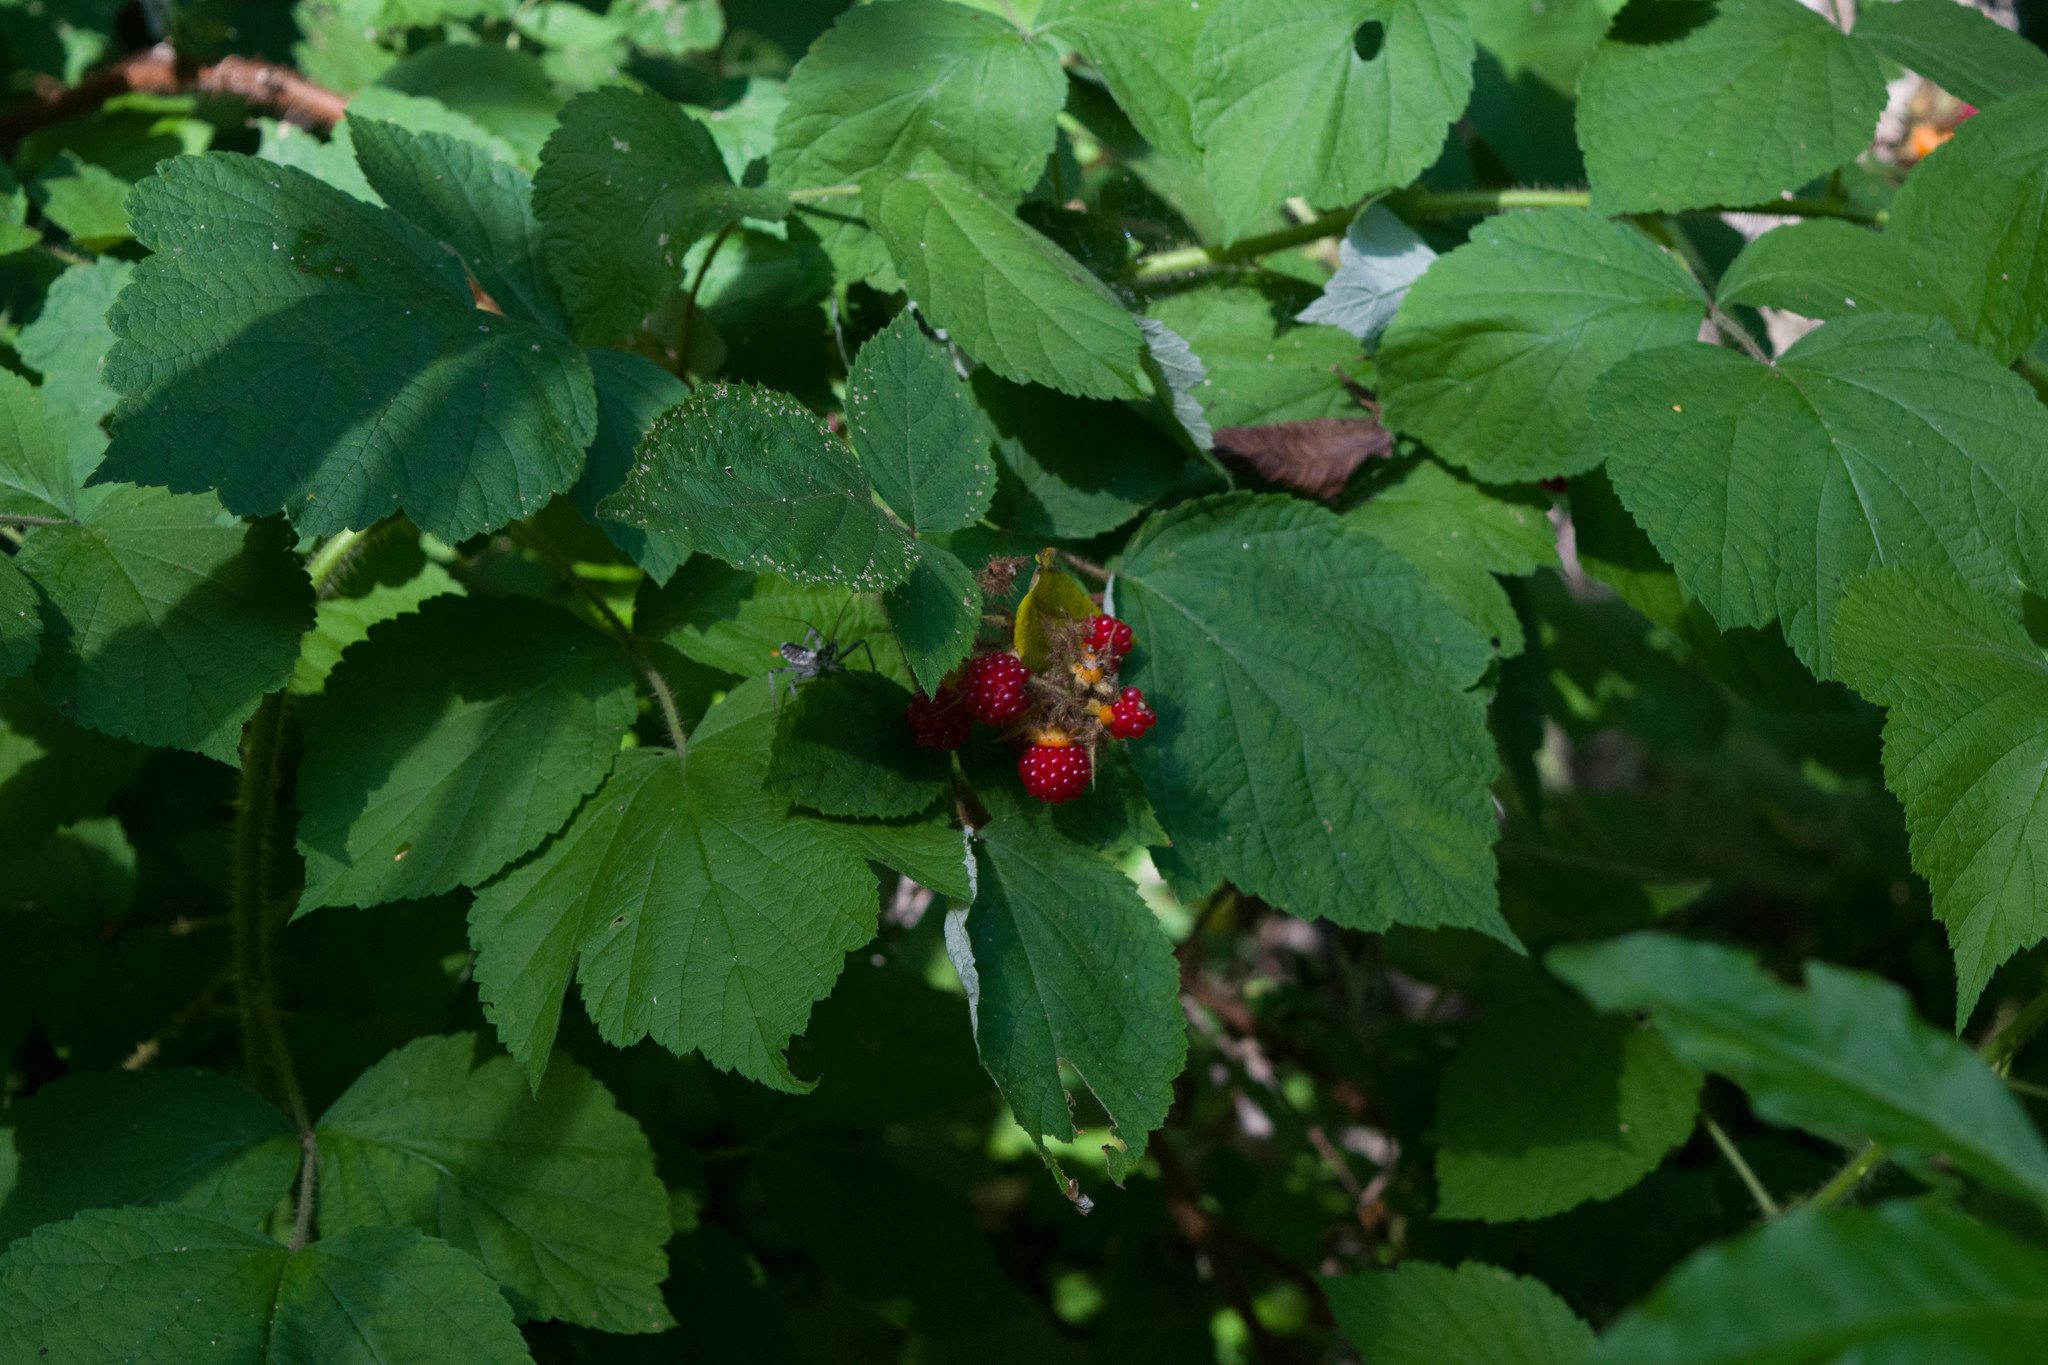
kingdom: Plantae
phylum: Tracheophyta
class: Magnoliopsida
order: Rosales
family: Rosaceae
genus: Rubus
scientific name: Rubus phoenicolasius
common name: Japanese wineberry
